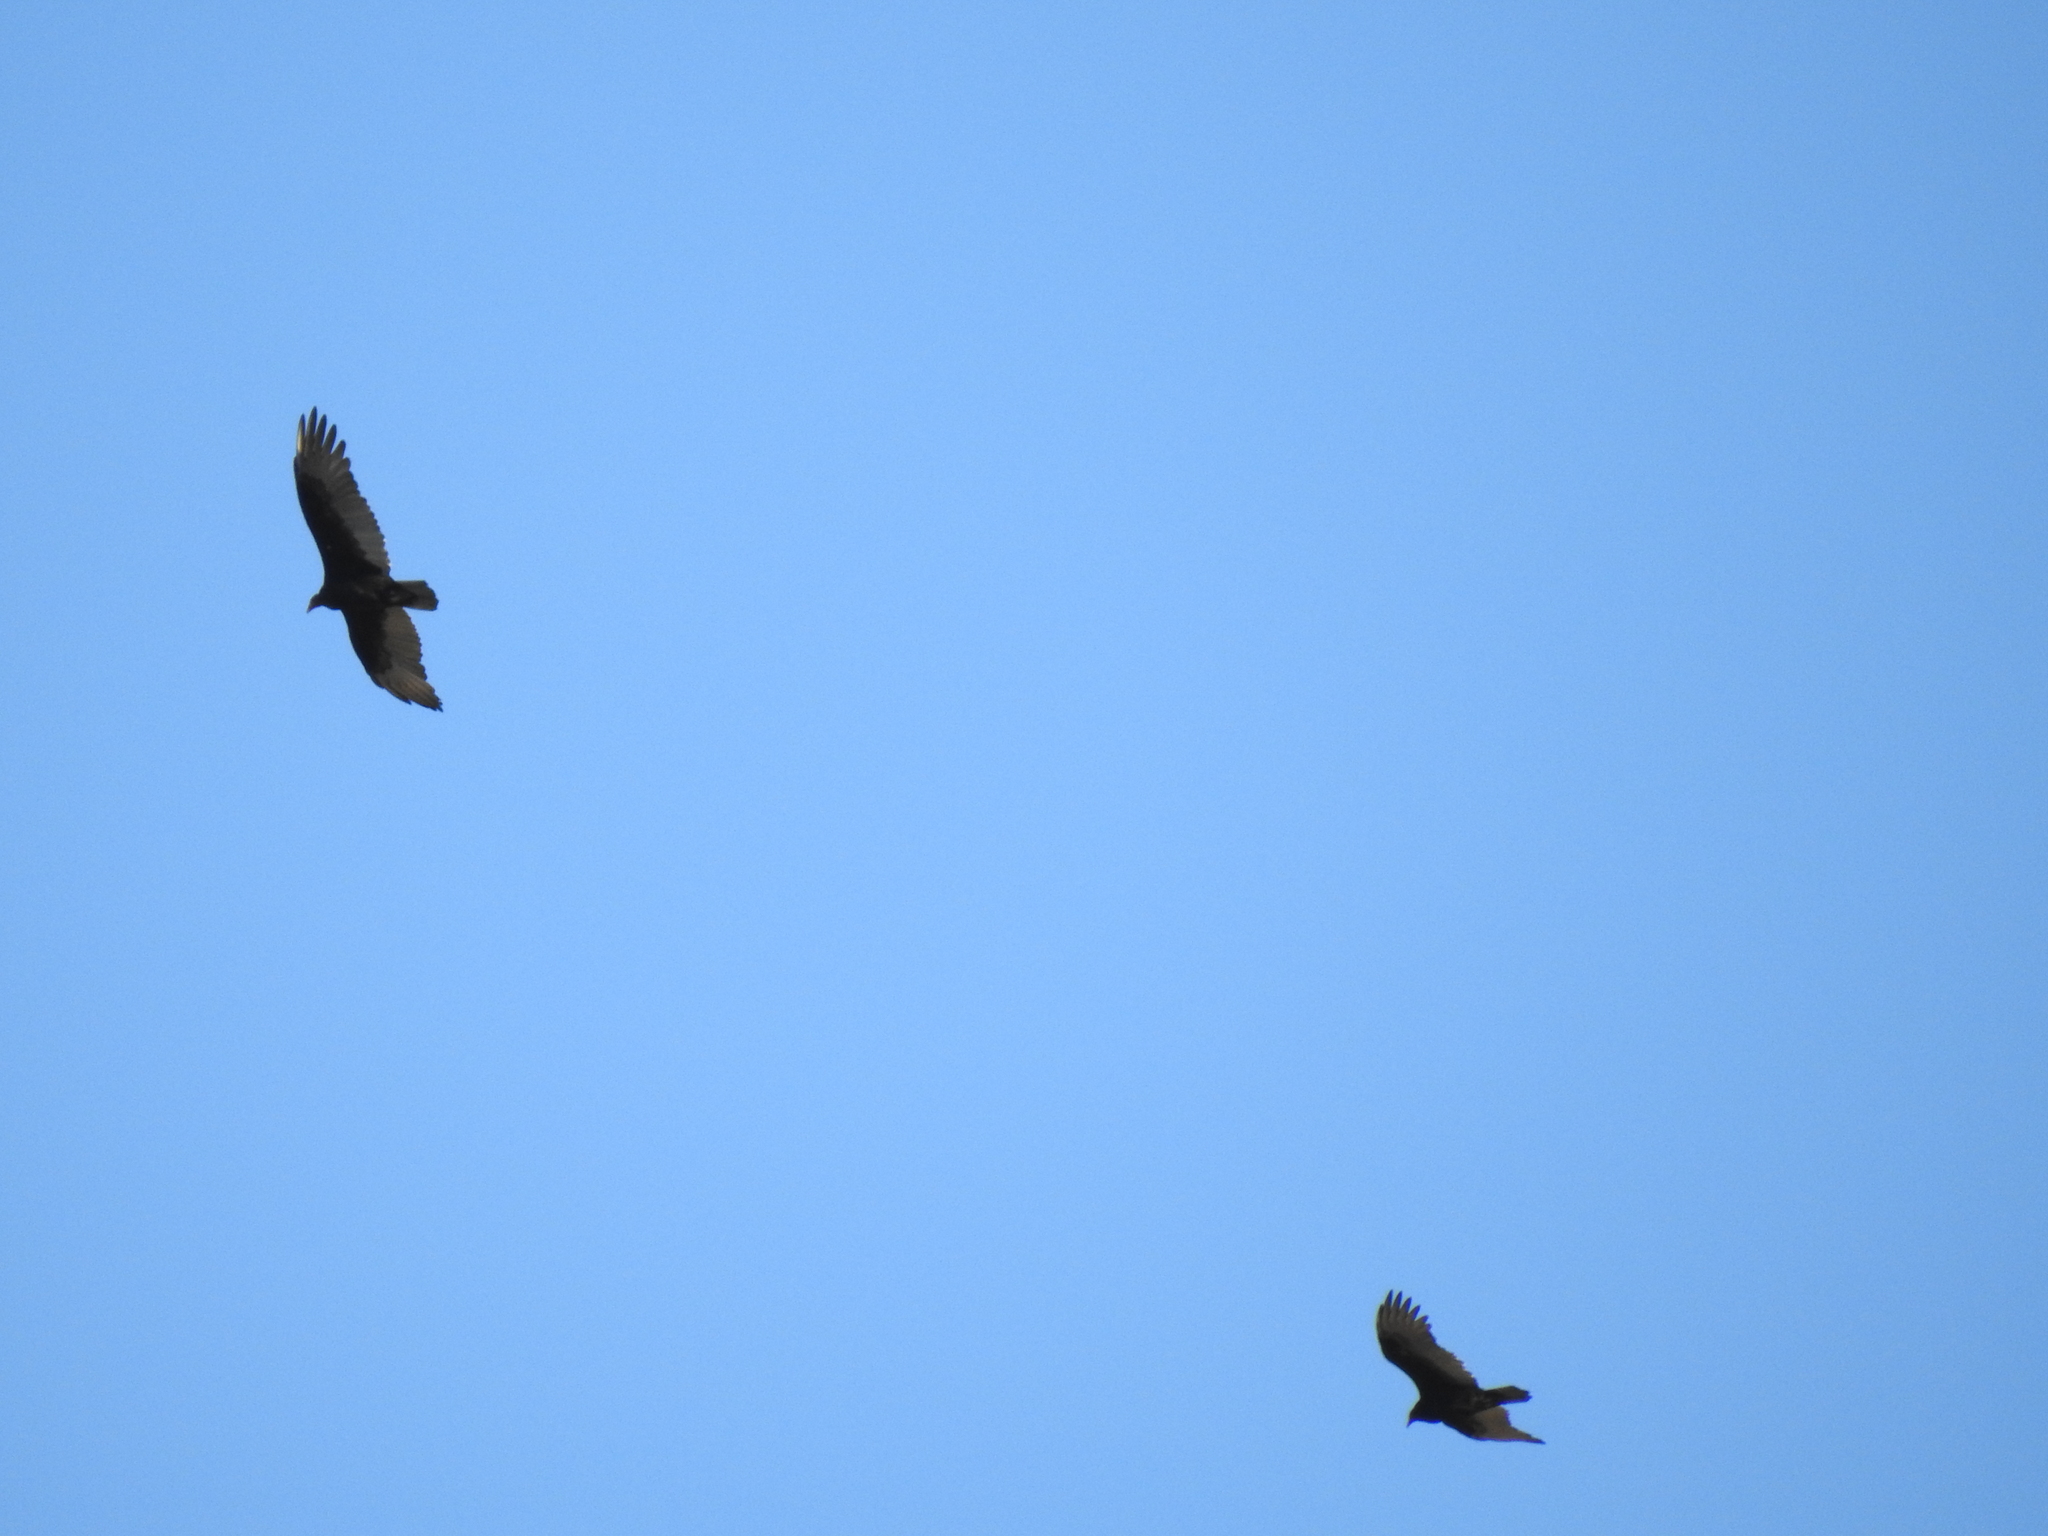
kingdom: Animalia
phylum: Chordata
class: Aves
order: Accipitriformes
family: Cathartidae
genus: Cathartes
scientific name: Cathartes aura
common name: Turkey vulture
